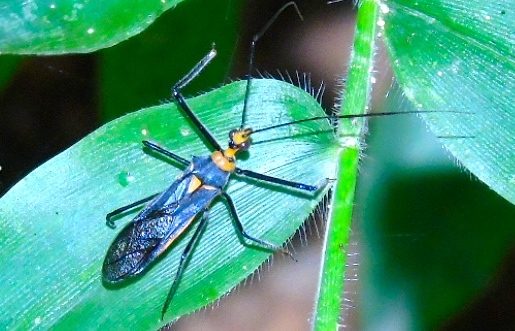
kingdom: Animalia
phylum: Arthropoda
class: Insecta
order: Hemiptera
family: Reduviidae
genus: Repipta
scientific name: Repipta fuscipes
